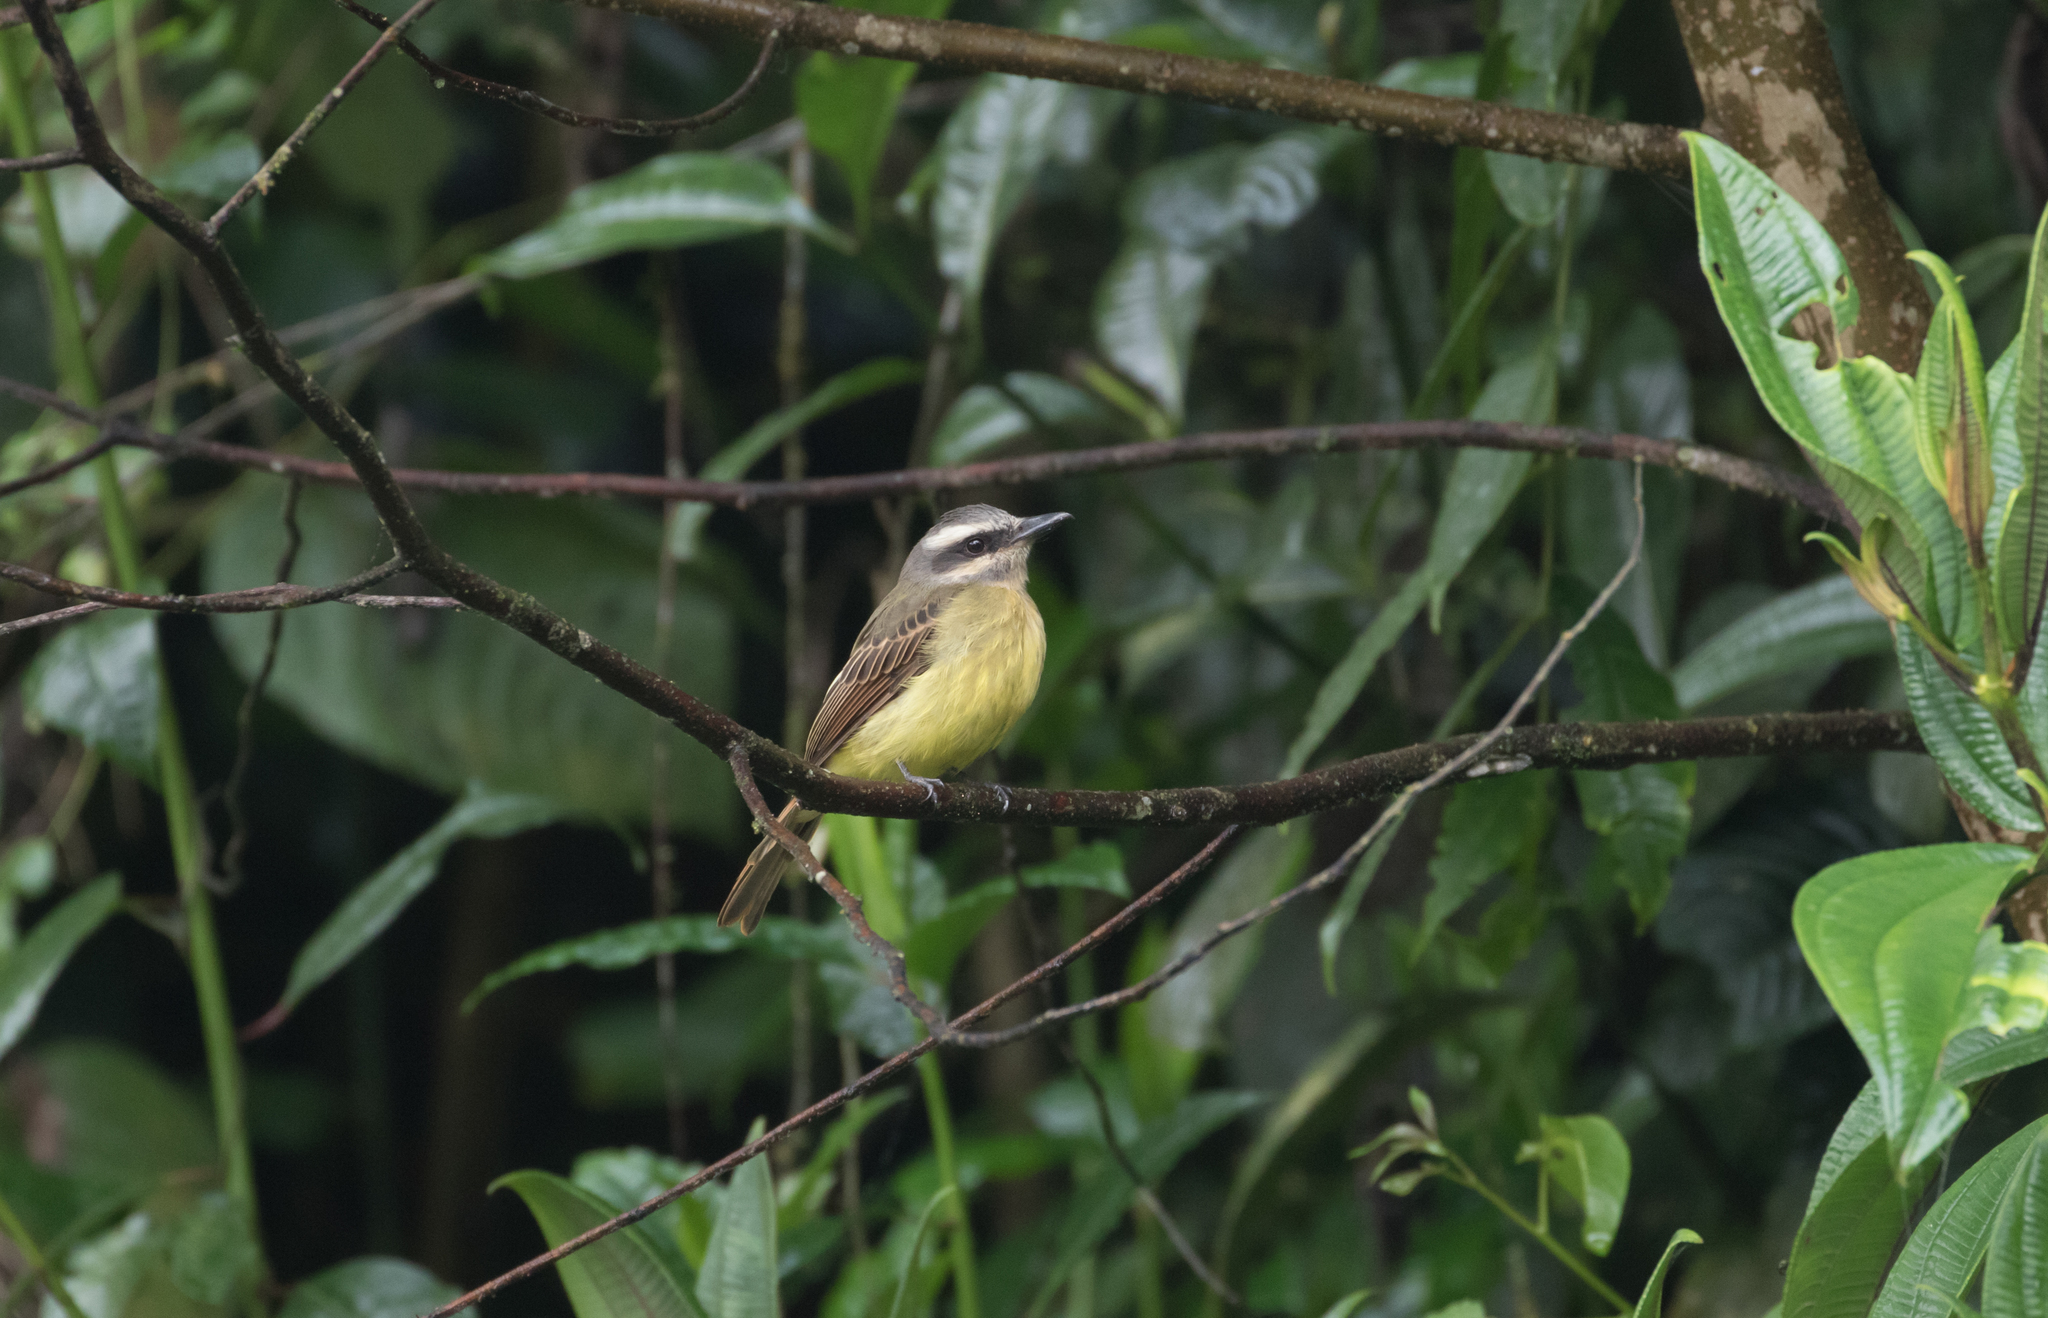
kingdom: Animalia
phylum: Chordata
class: Aves
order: Passeriformes
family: Tyrannidae
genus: Myiodynastes
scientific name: Myiodynastes hemichrysus
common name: Golden-bellied flycatcher
